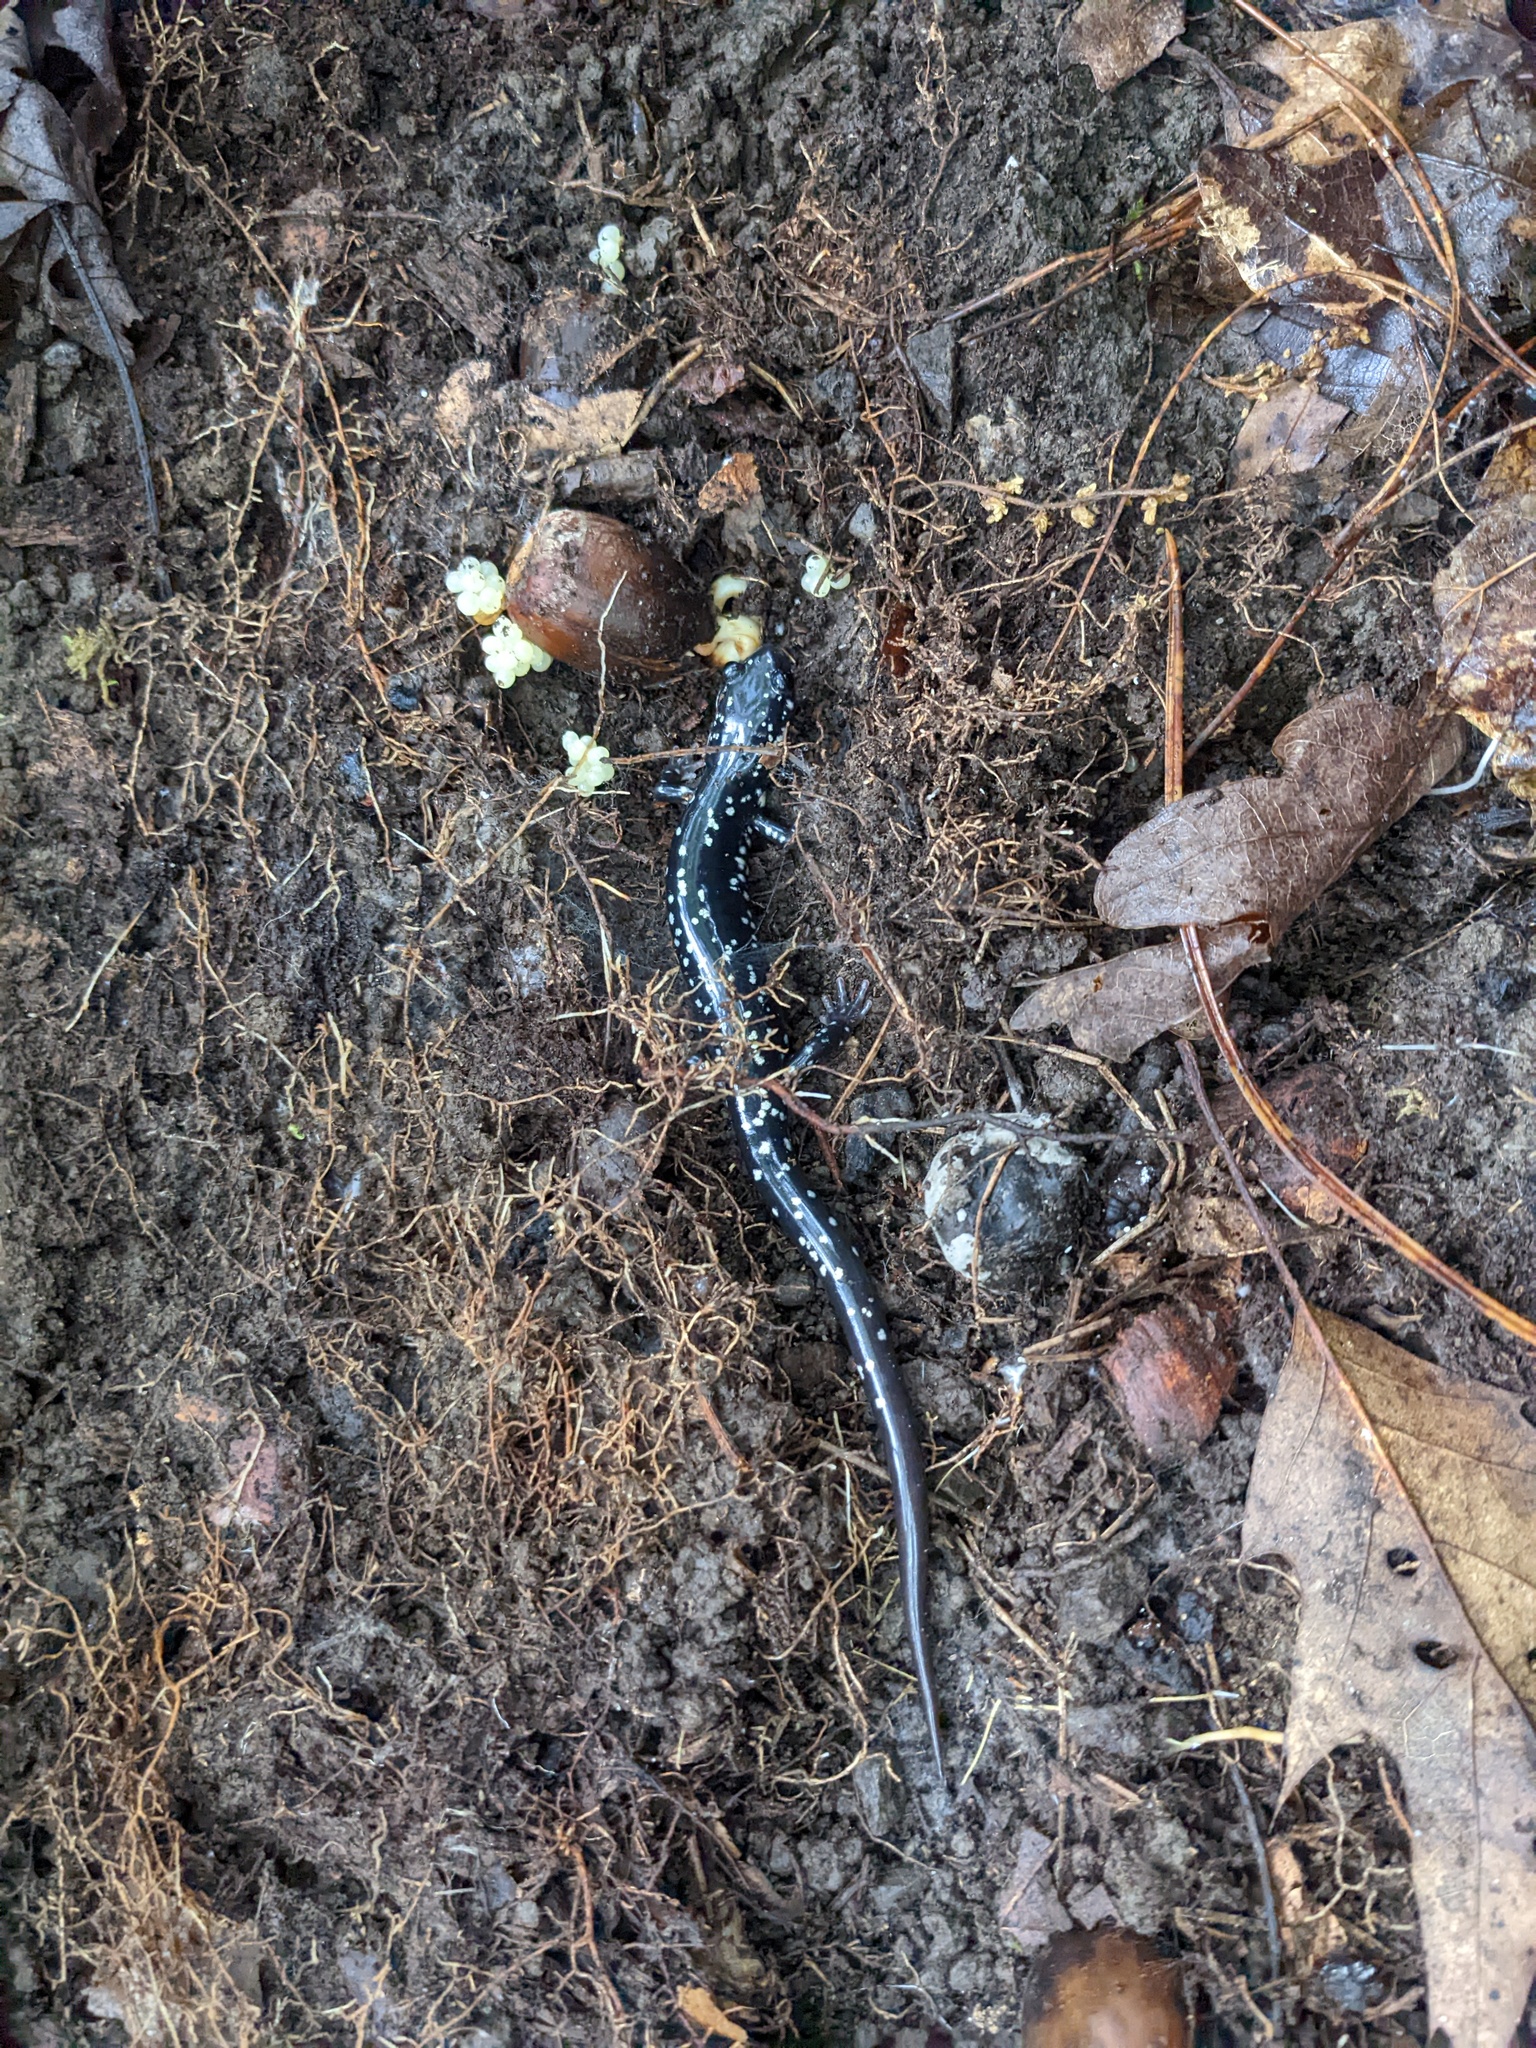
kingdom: Animalia
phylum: Chordata
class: Amphibia
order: Caudata
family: Plethodontidae
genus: Plethodon
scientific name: Plethodon glutinosus
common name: Northern slimy salamander
